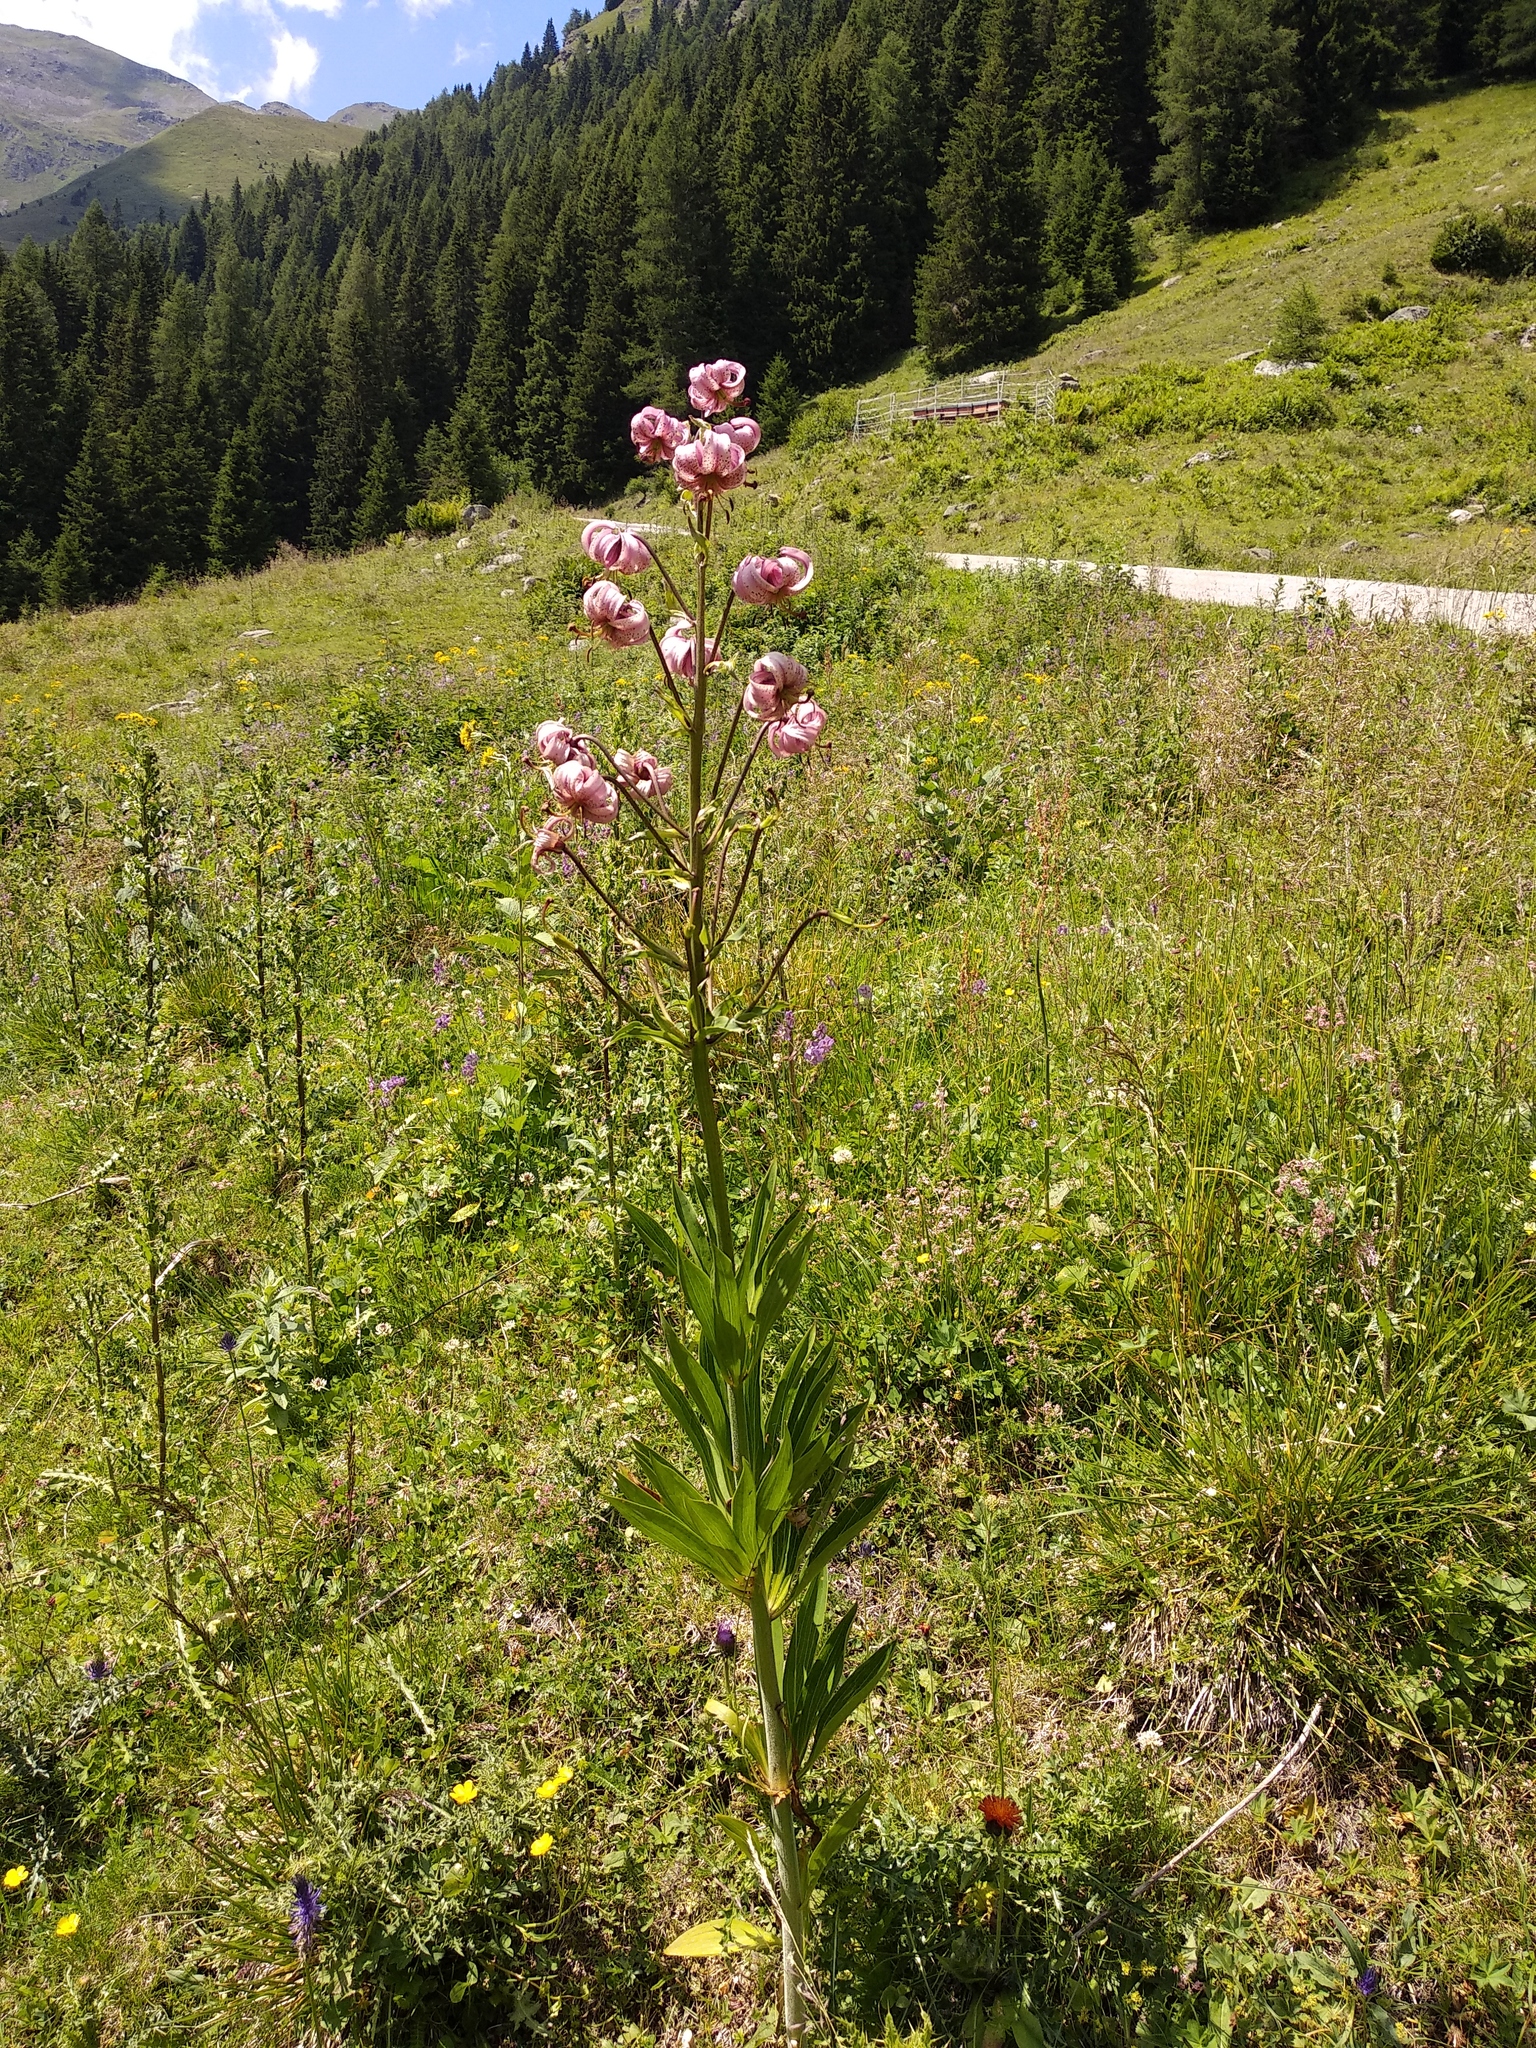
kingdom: Plantae
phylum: Tracheophyta
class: Liliopsida
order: Liliales
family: Liliaceae
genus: Lilium
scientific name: Lilium martagon
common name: Martagon lily
